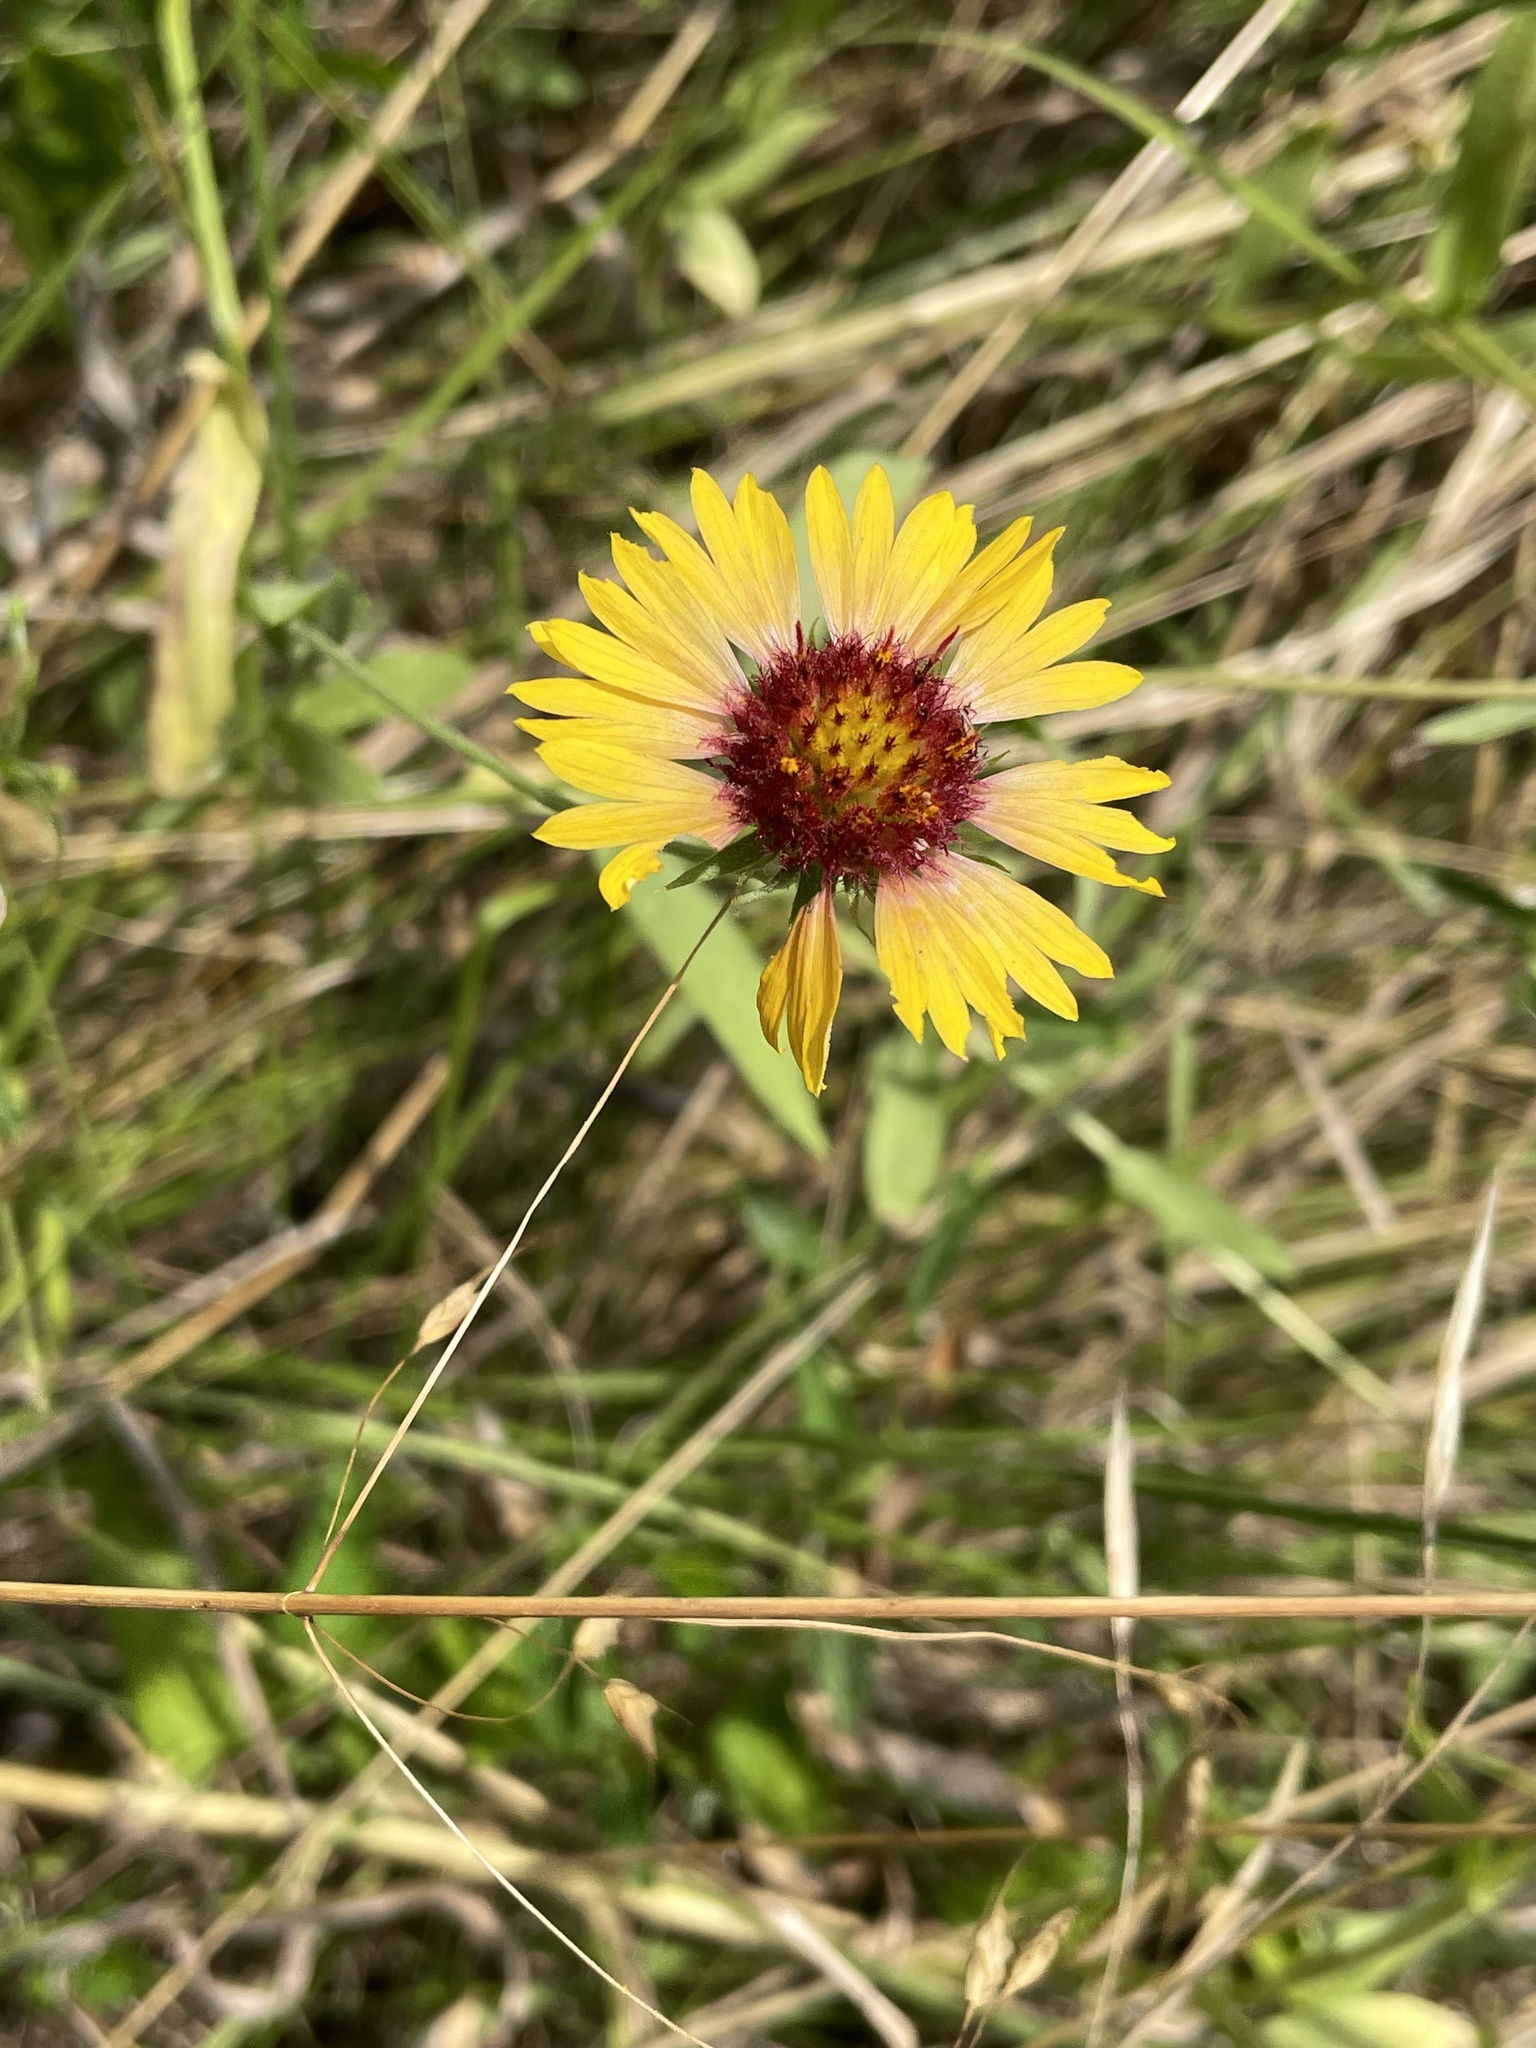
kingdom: Plantae
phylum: Tracheophyta
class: Magnoliopsida
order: Asterales
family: Asteraceae
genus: Gaillardia
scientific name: Gaillardia pulchella
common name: Firewheel
